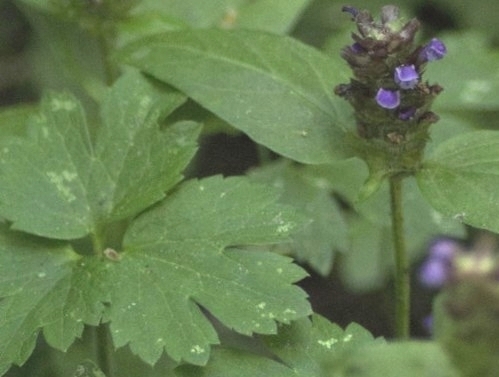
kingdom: Plantae
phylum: Tracheophyta
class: Magnoliopsida
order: Lamiales
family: Lamiaceae
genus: Prunella
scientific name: Prunella vulgaris
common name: Heal-all
